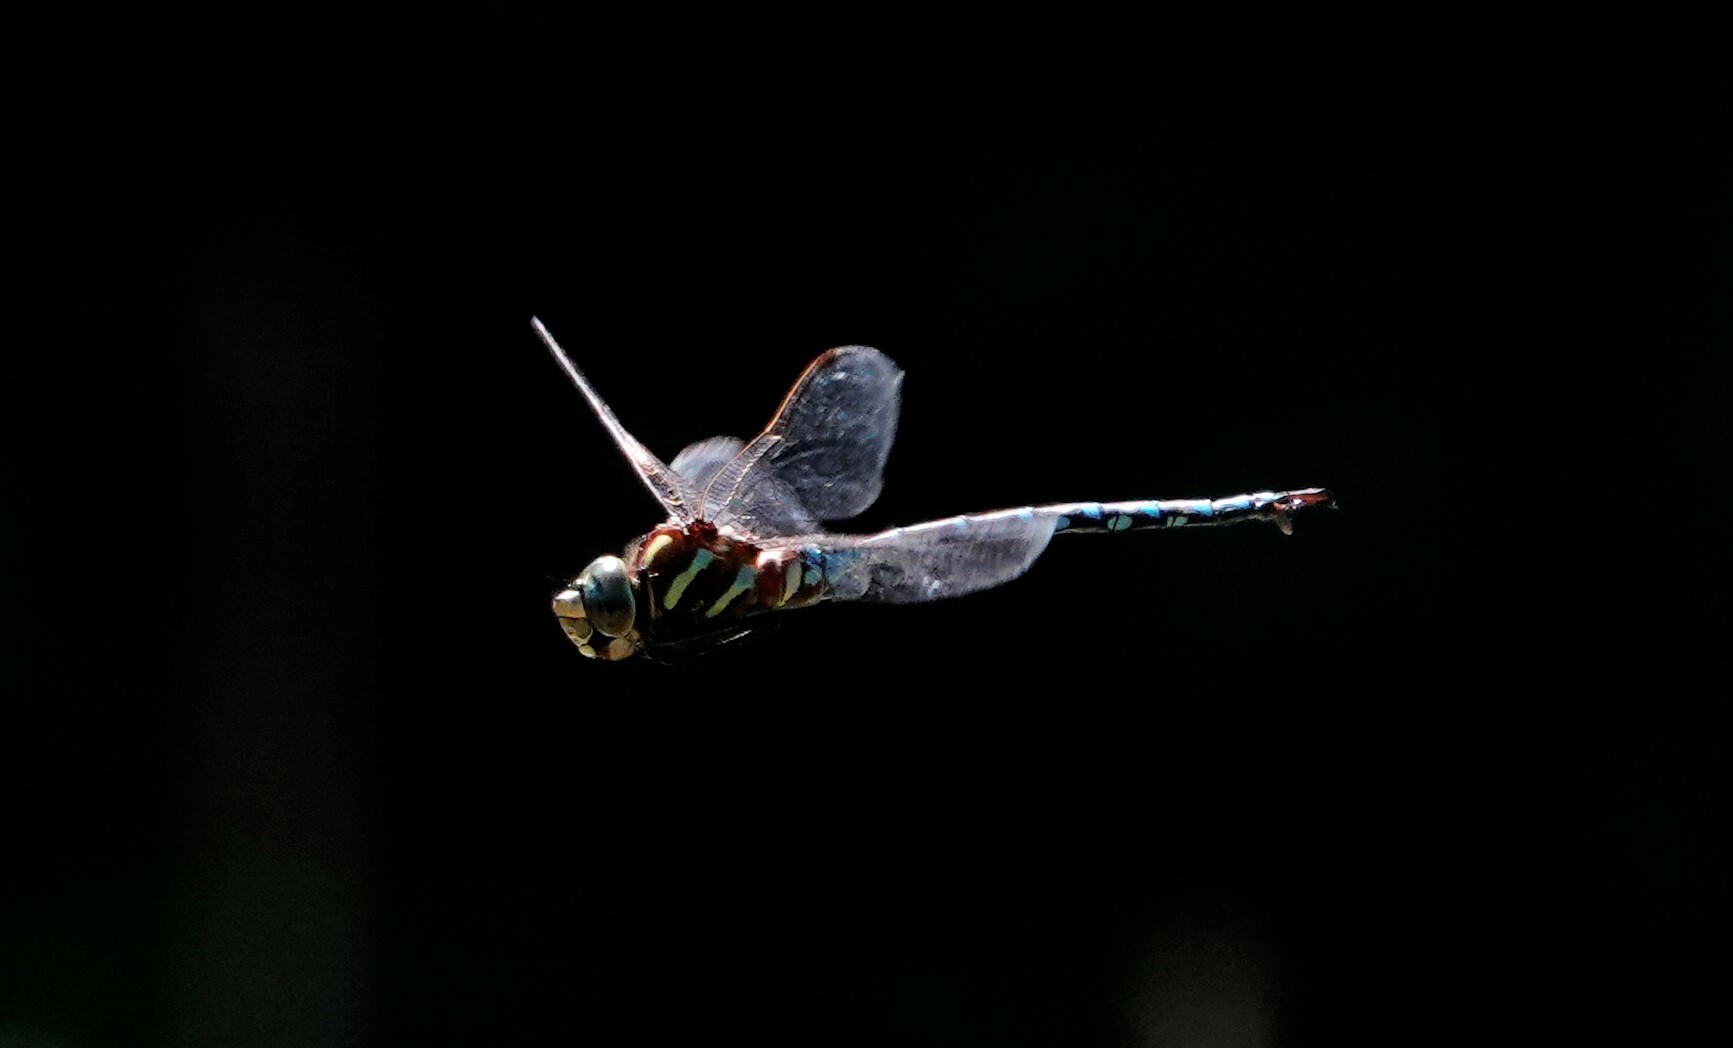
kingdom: Animalia
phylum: Arthropoda
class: Insecta
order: Odonata
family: Aeshnidae
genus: Aeshna
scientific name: Aeshna constricta
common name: Lance-tipped darner
